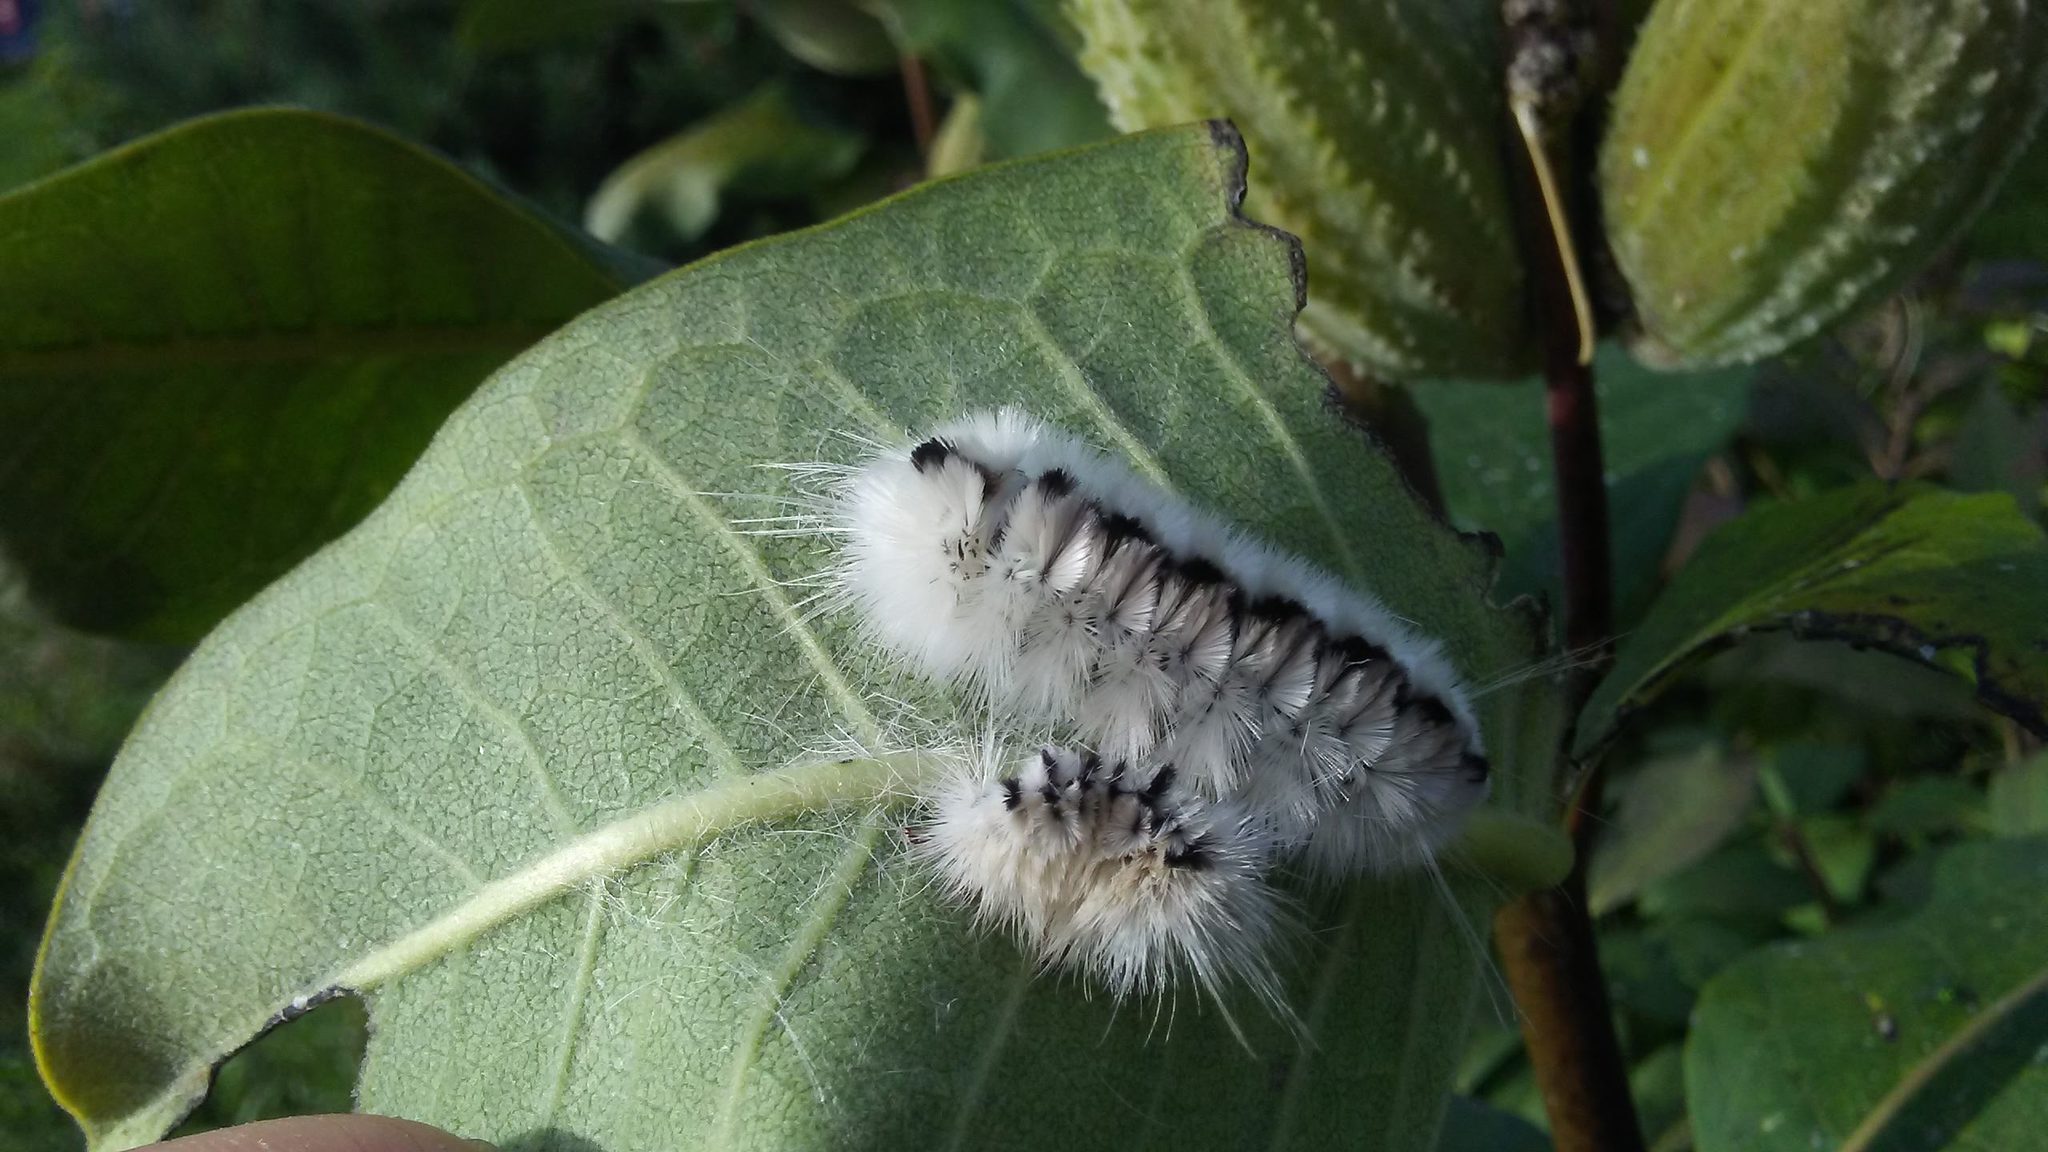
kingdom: Animalia
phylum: Arthropoda
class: Insecta
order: Lepidoptera
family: Erebidae
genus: Lophocampa
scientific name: Lophocampa caryae
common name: Hickory tussock moth
